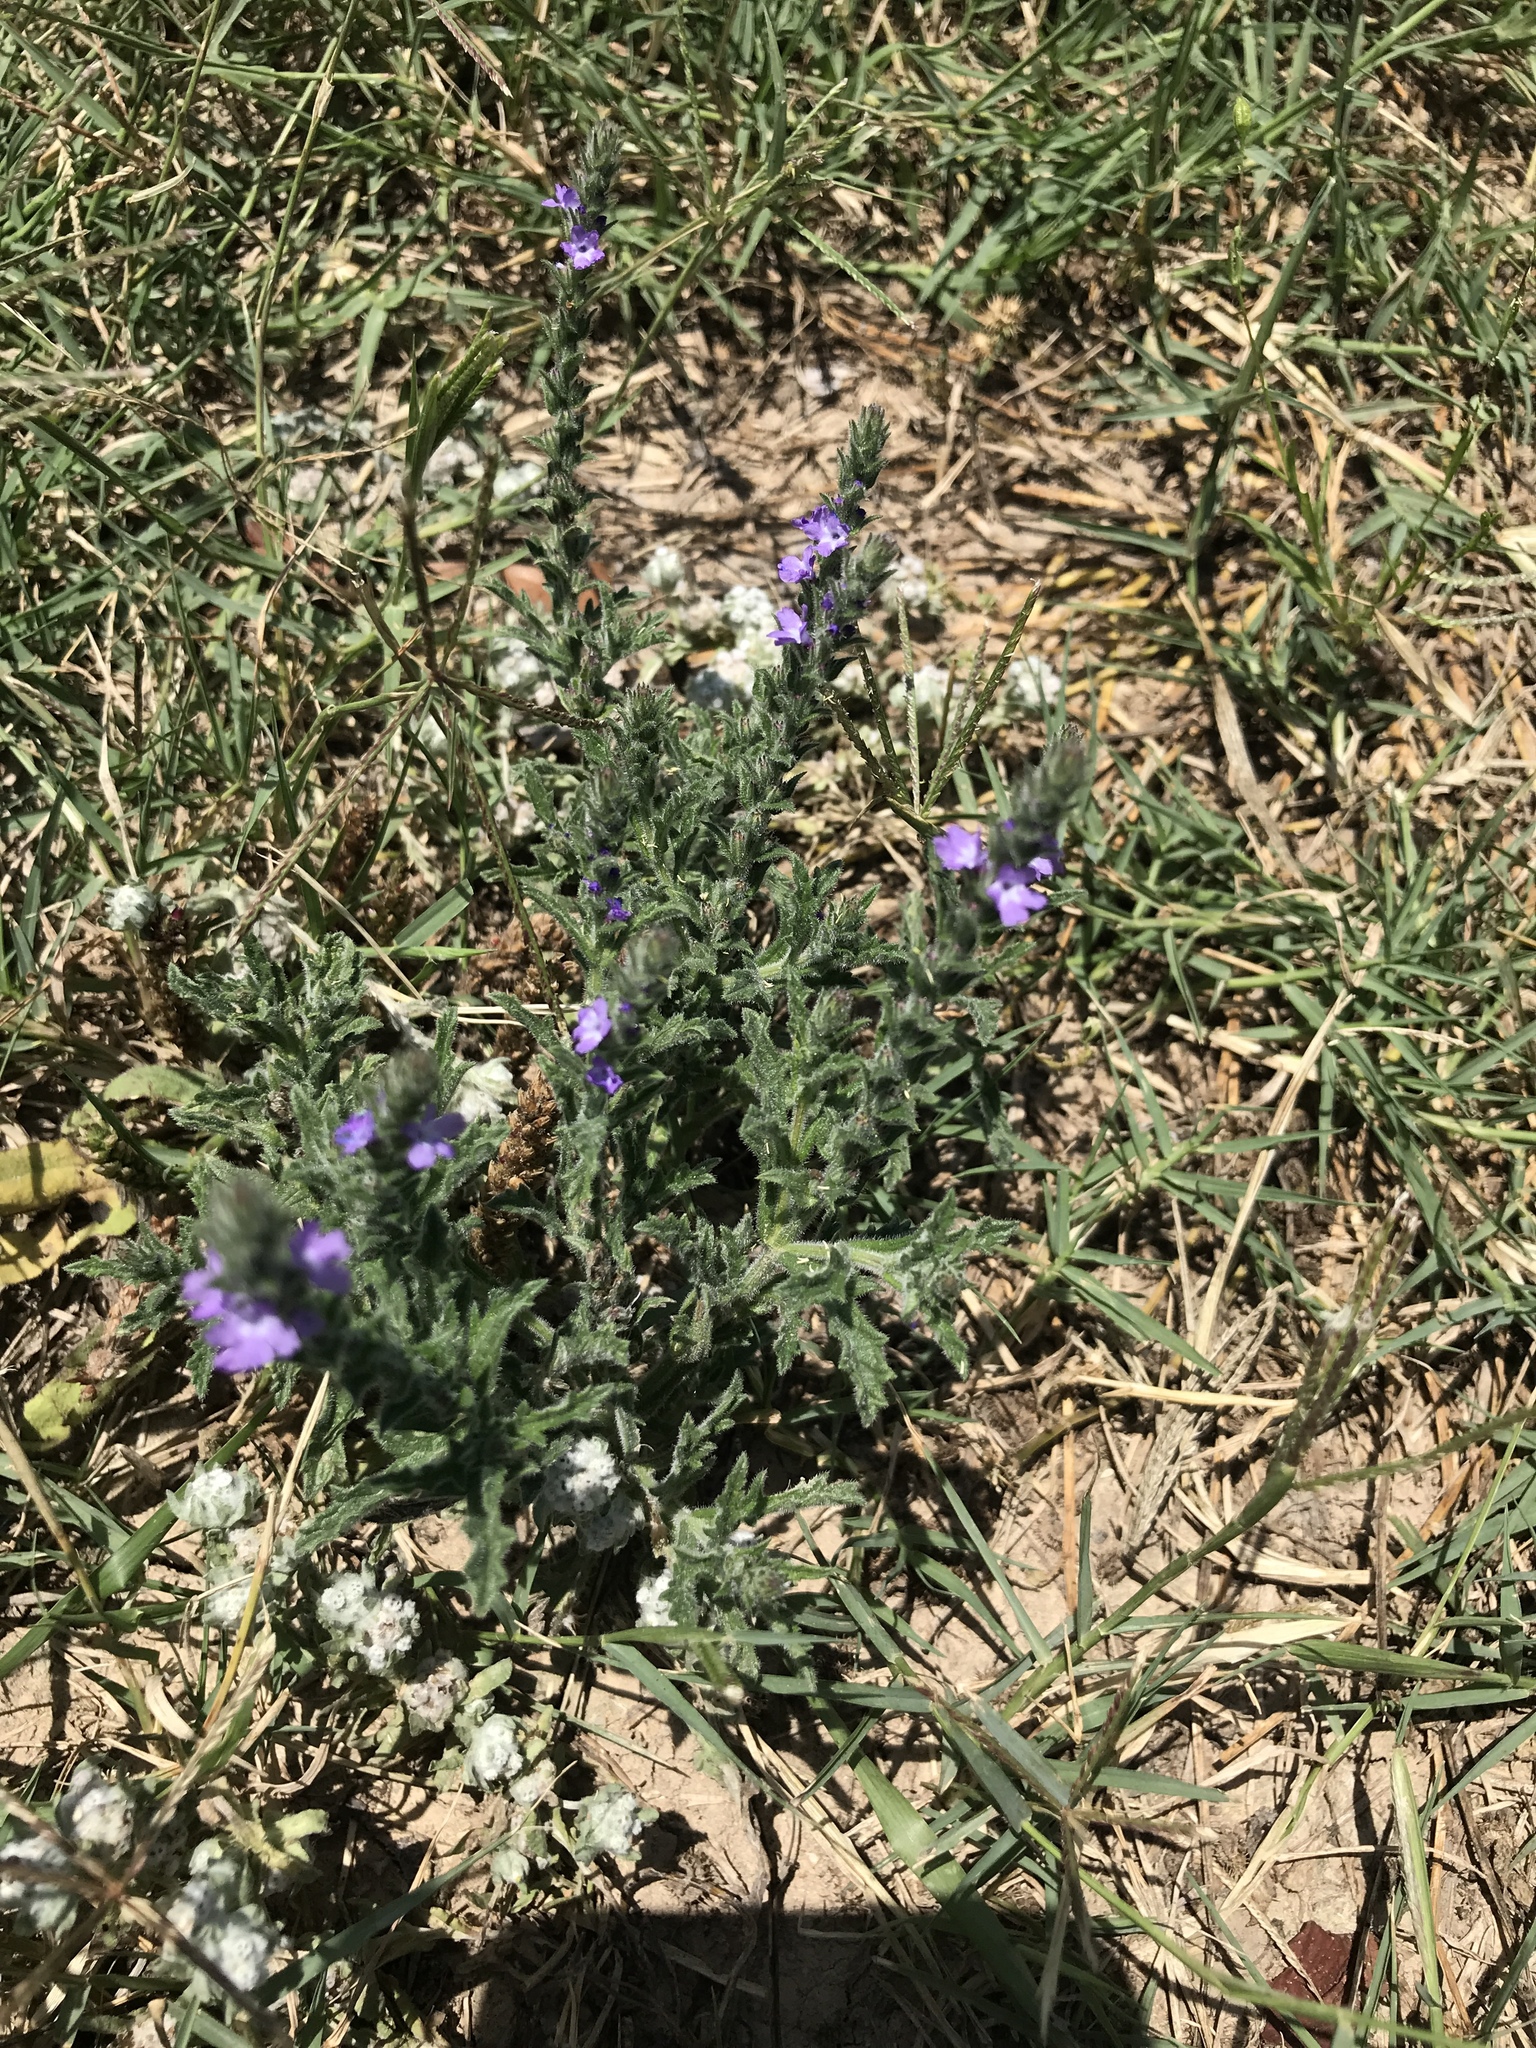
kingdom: Plantae
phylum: Tracheophyta
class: Magnoliopsida
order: Lamiales
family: Verbenaceae
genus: Verbena
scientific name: Verbena canescens
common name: Gray vervain
